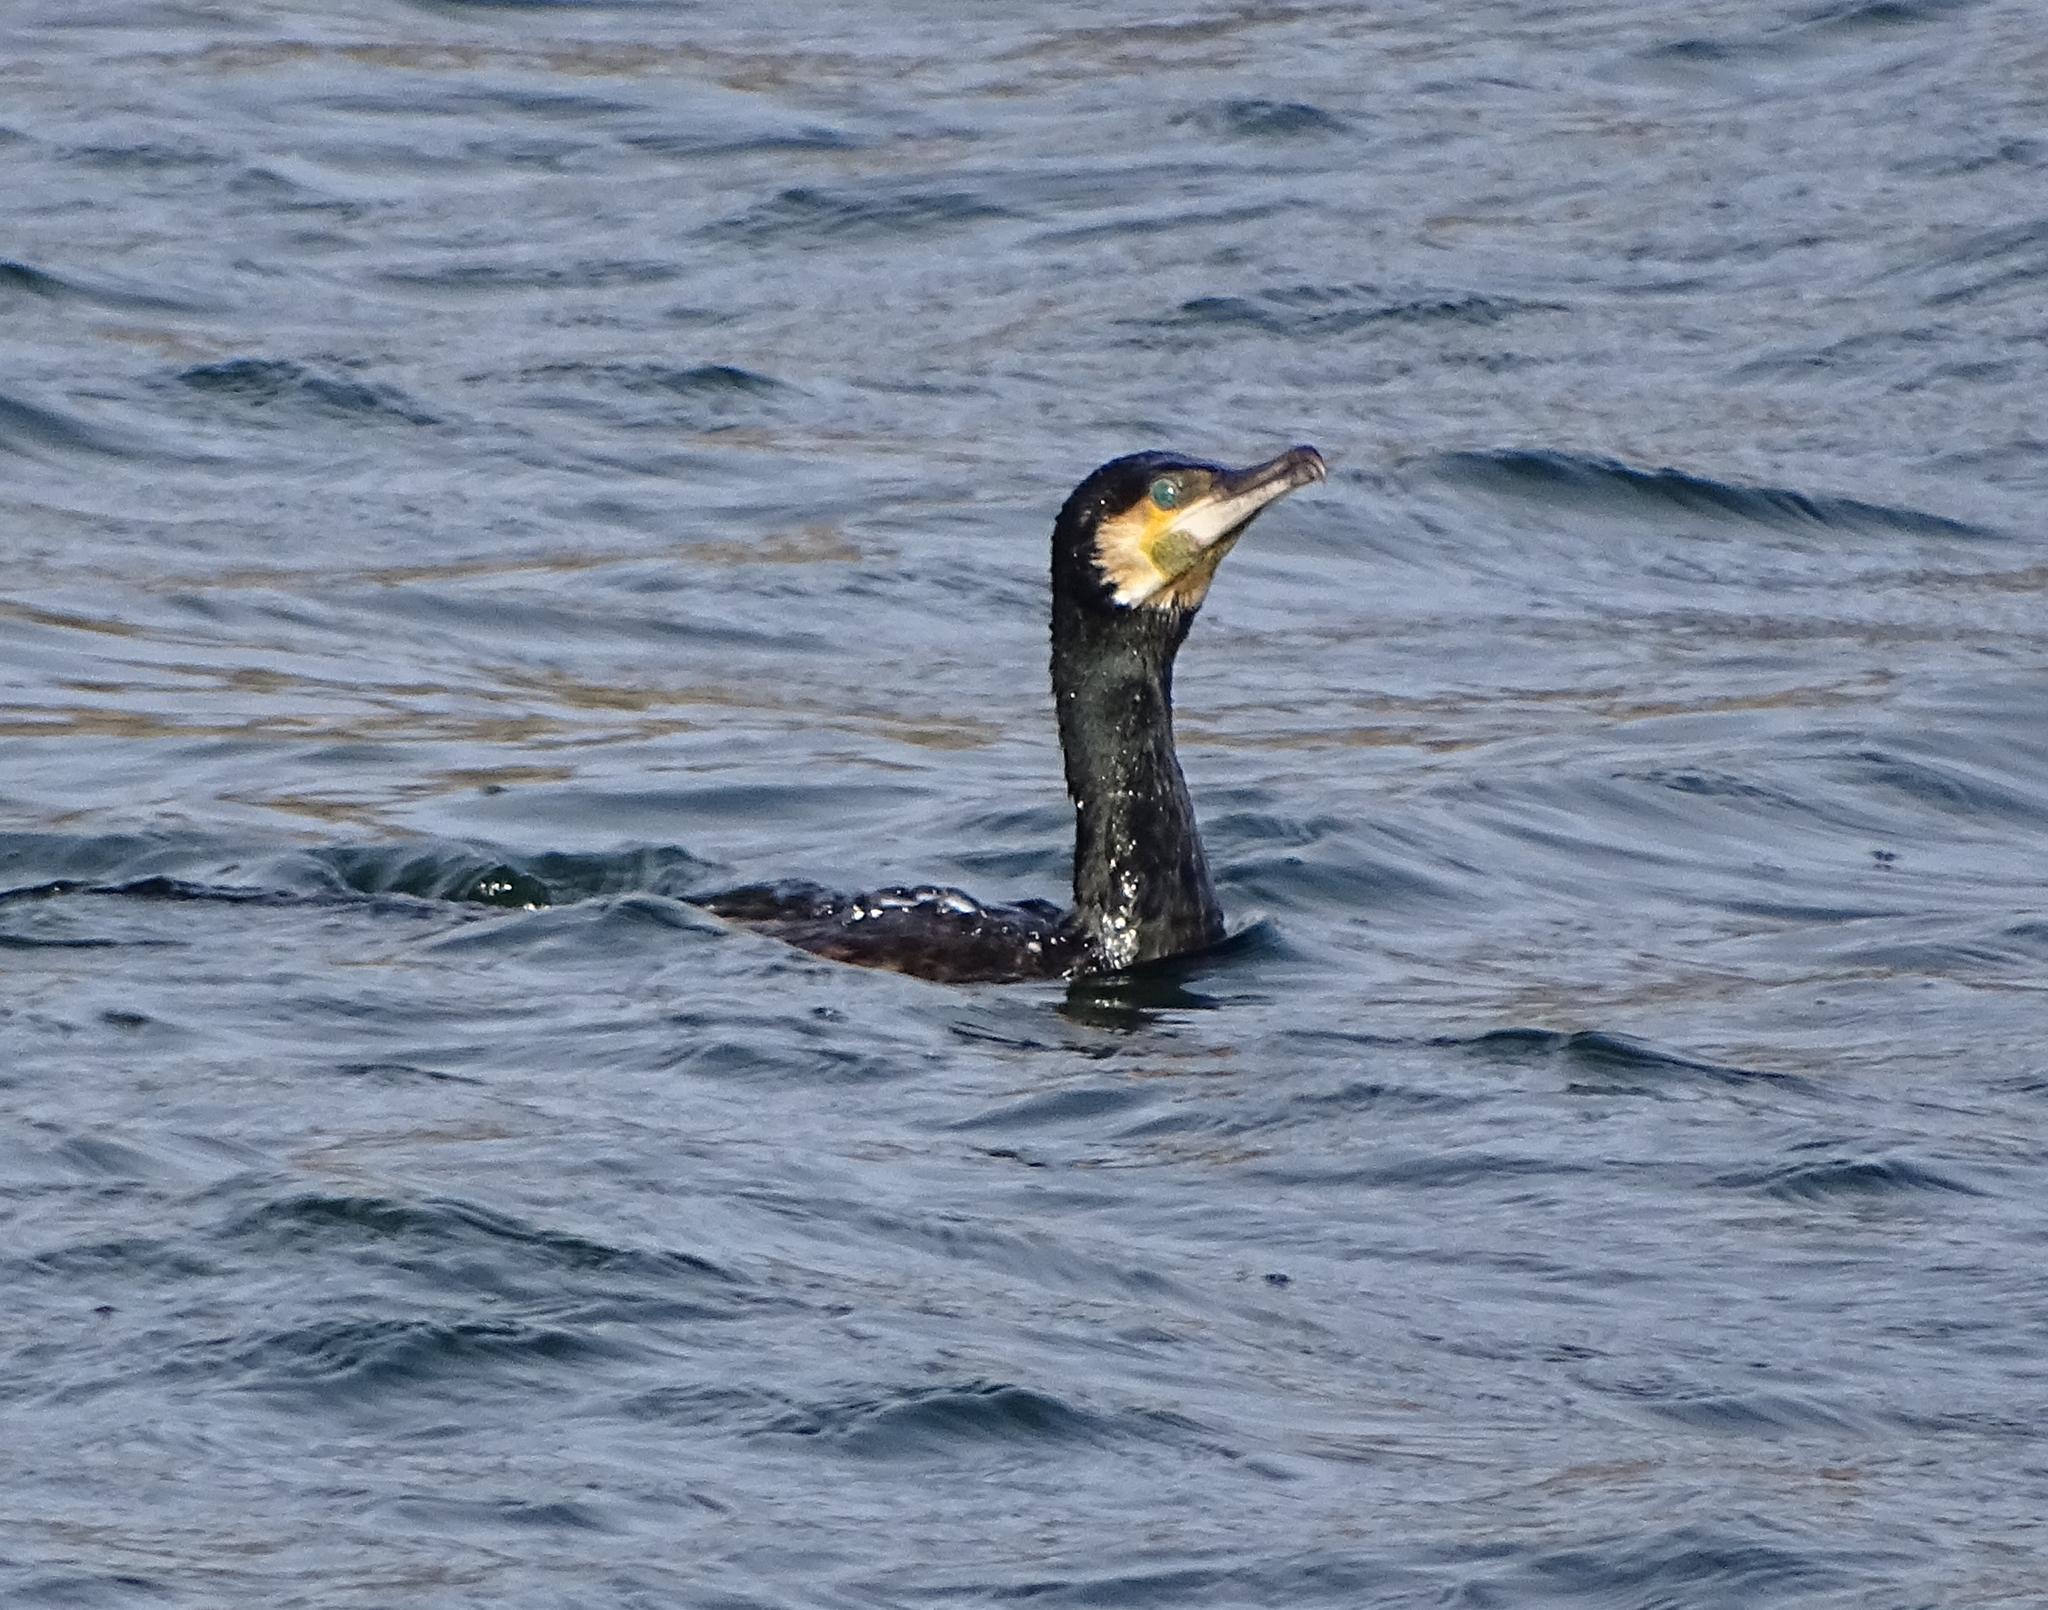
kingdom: Animalia
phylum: Chordata
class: Aves
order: Suliformes
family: Phalacrocoracidae
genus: Phalacrocorax
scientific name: Phalacrocorax carbo
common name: Great cormorant
